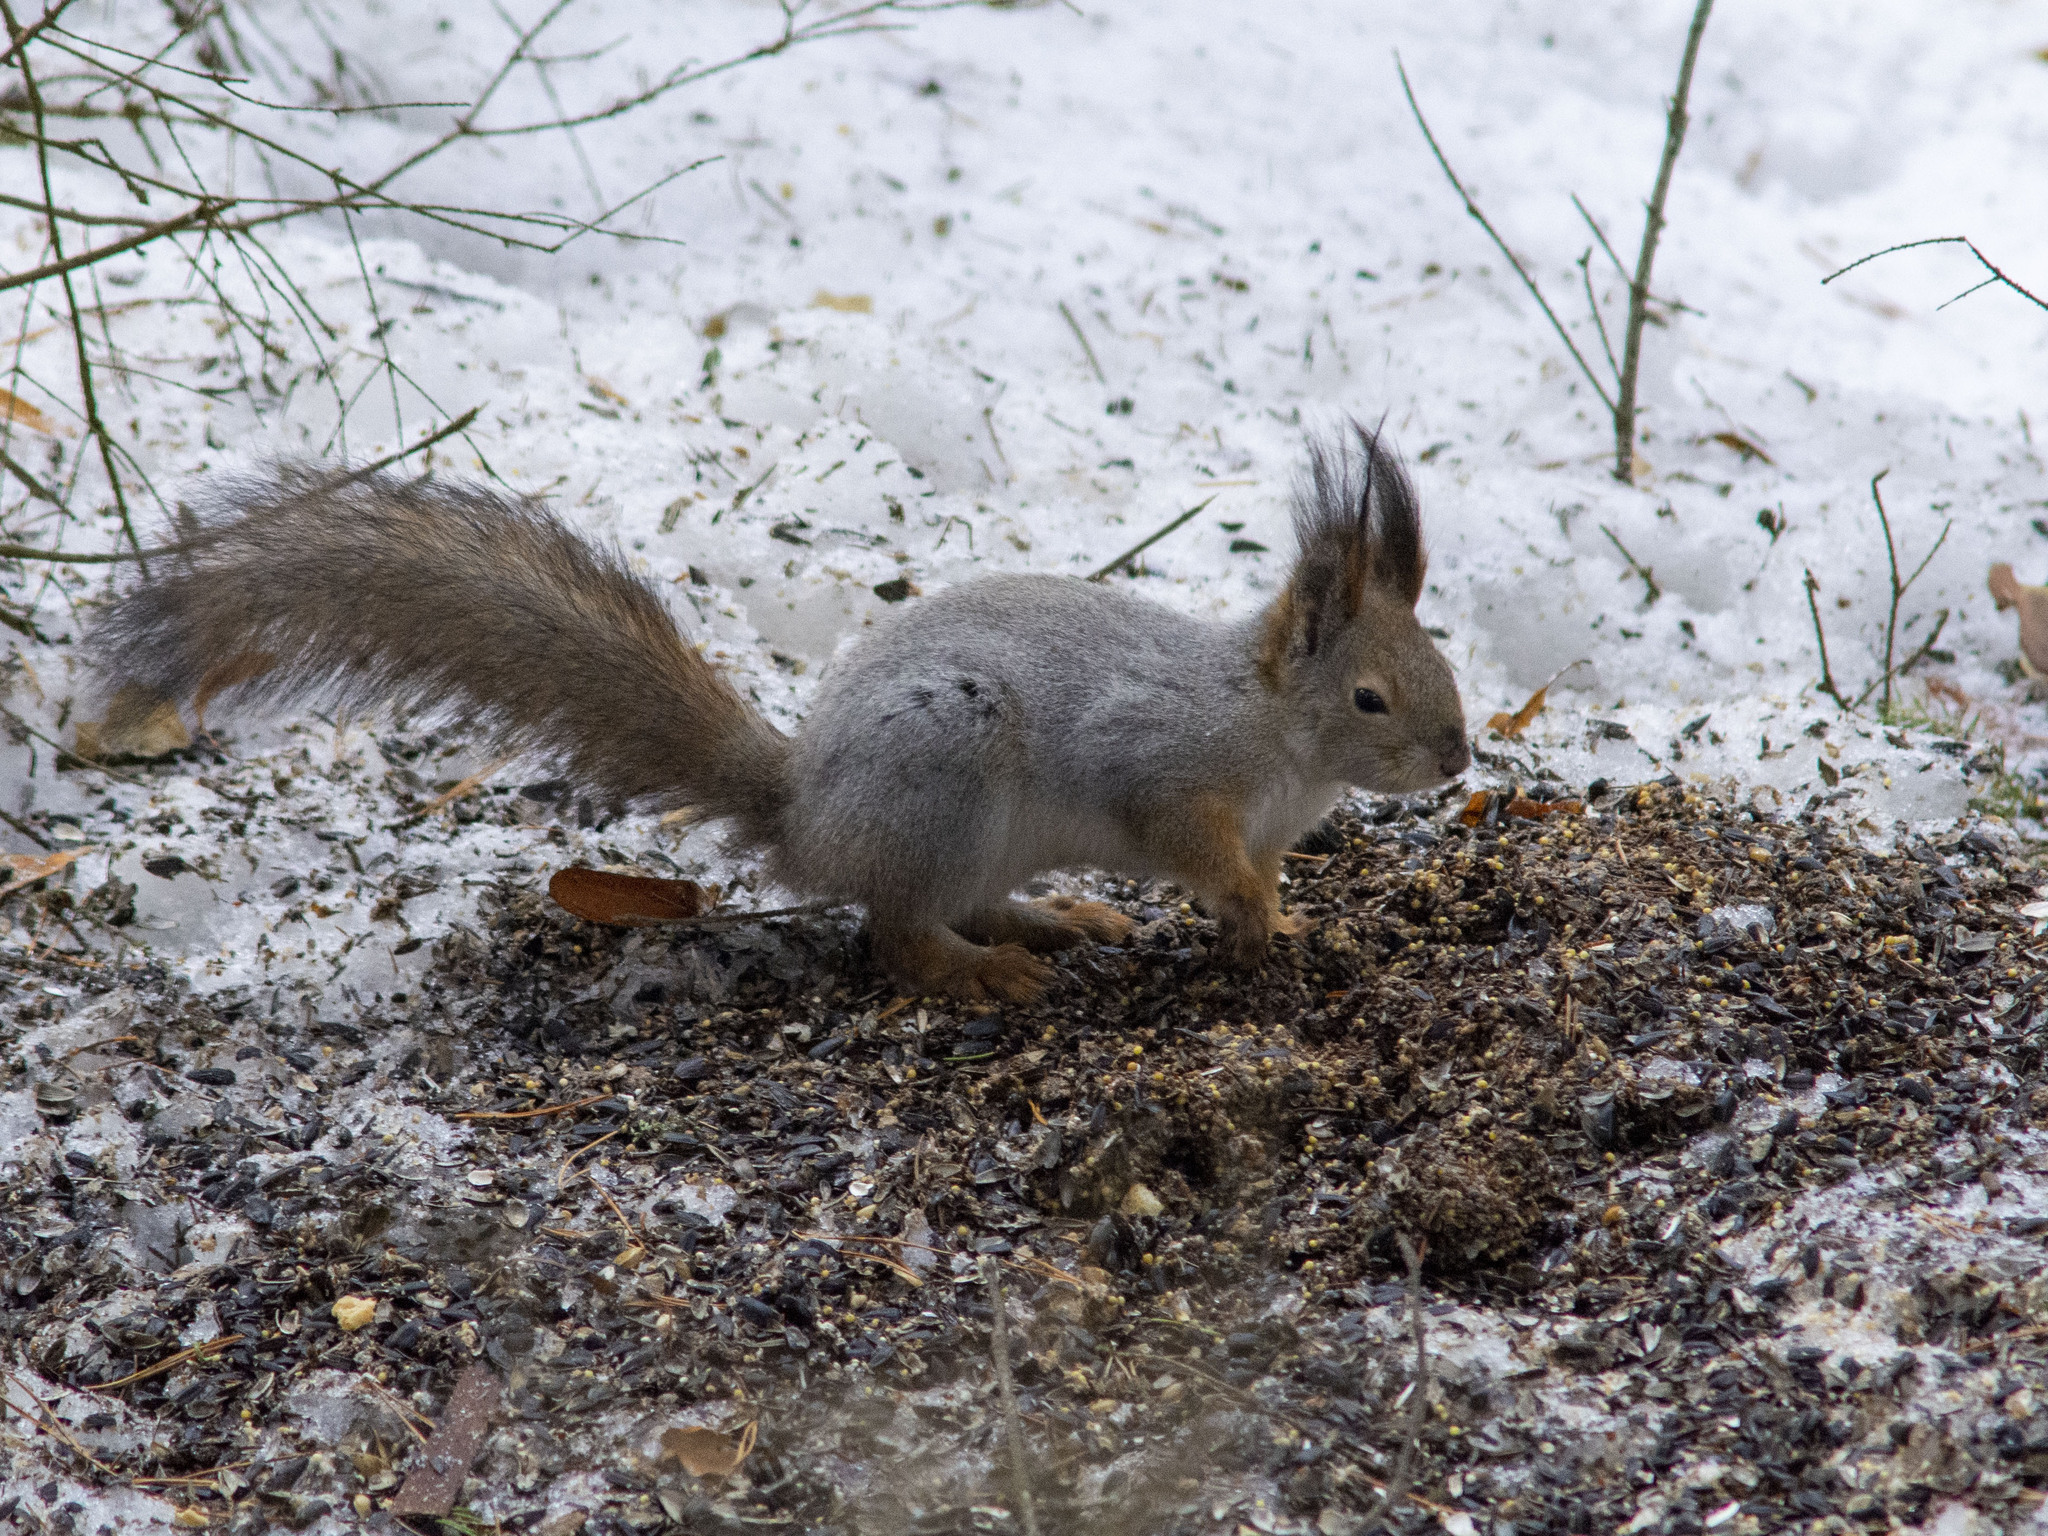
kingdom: Animalia
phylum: Chordata
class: Mammalia
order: Rodentia
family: Sciuridae
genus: Sciurus
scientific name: Sciurus vulgaris
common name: Eurasian red squirrel
